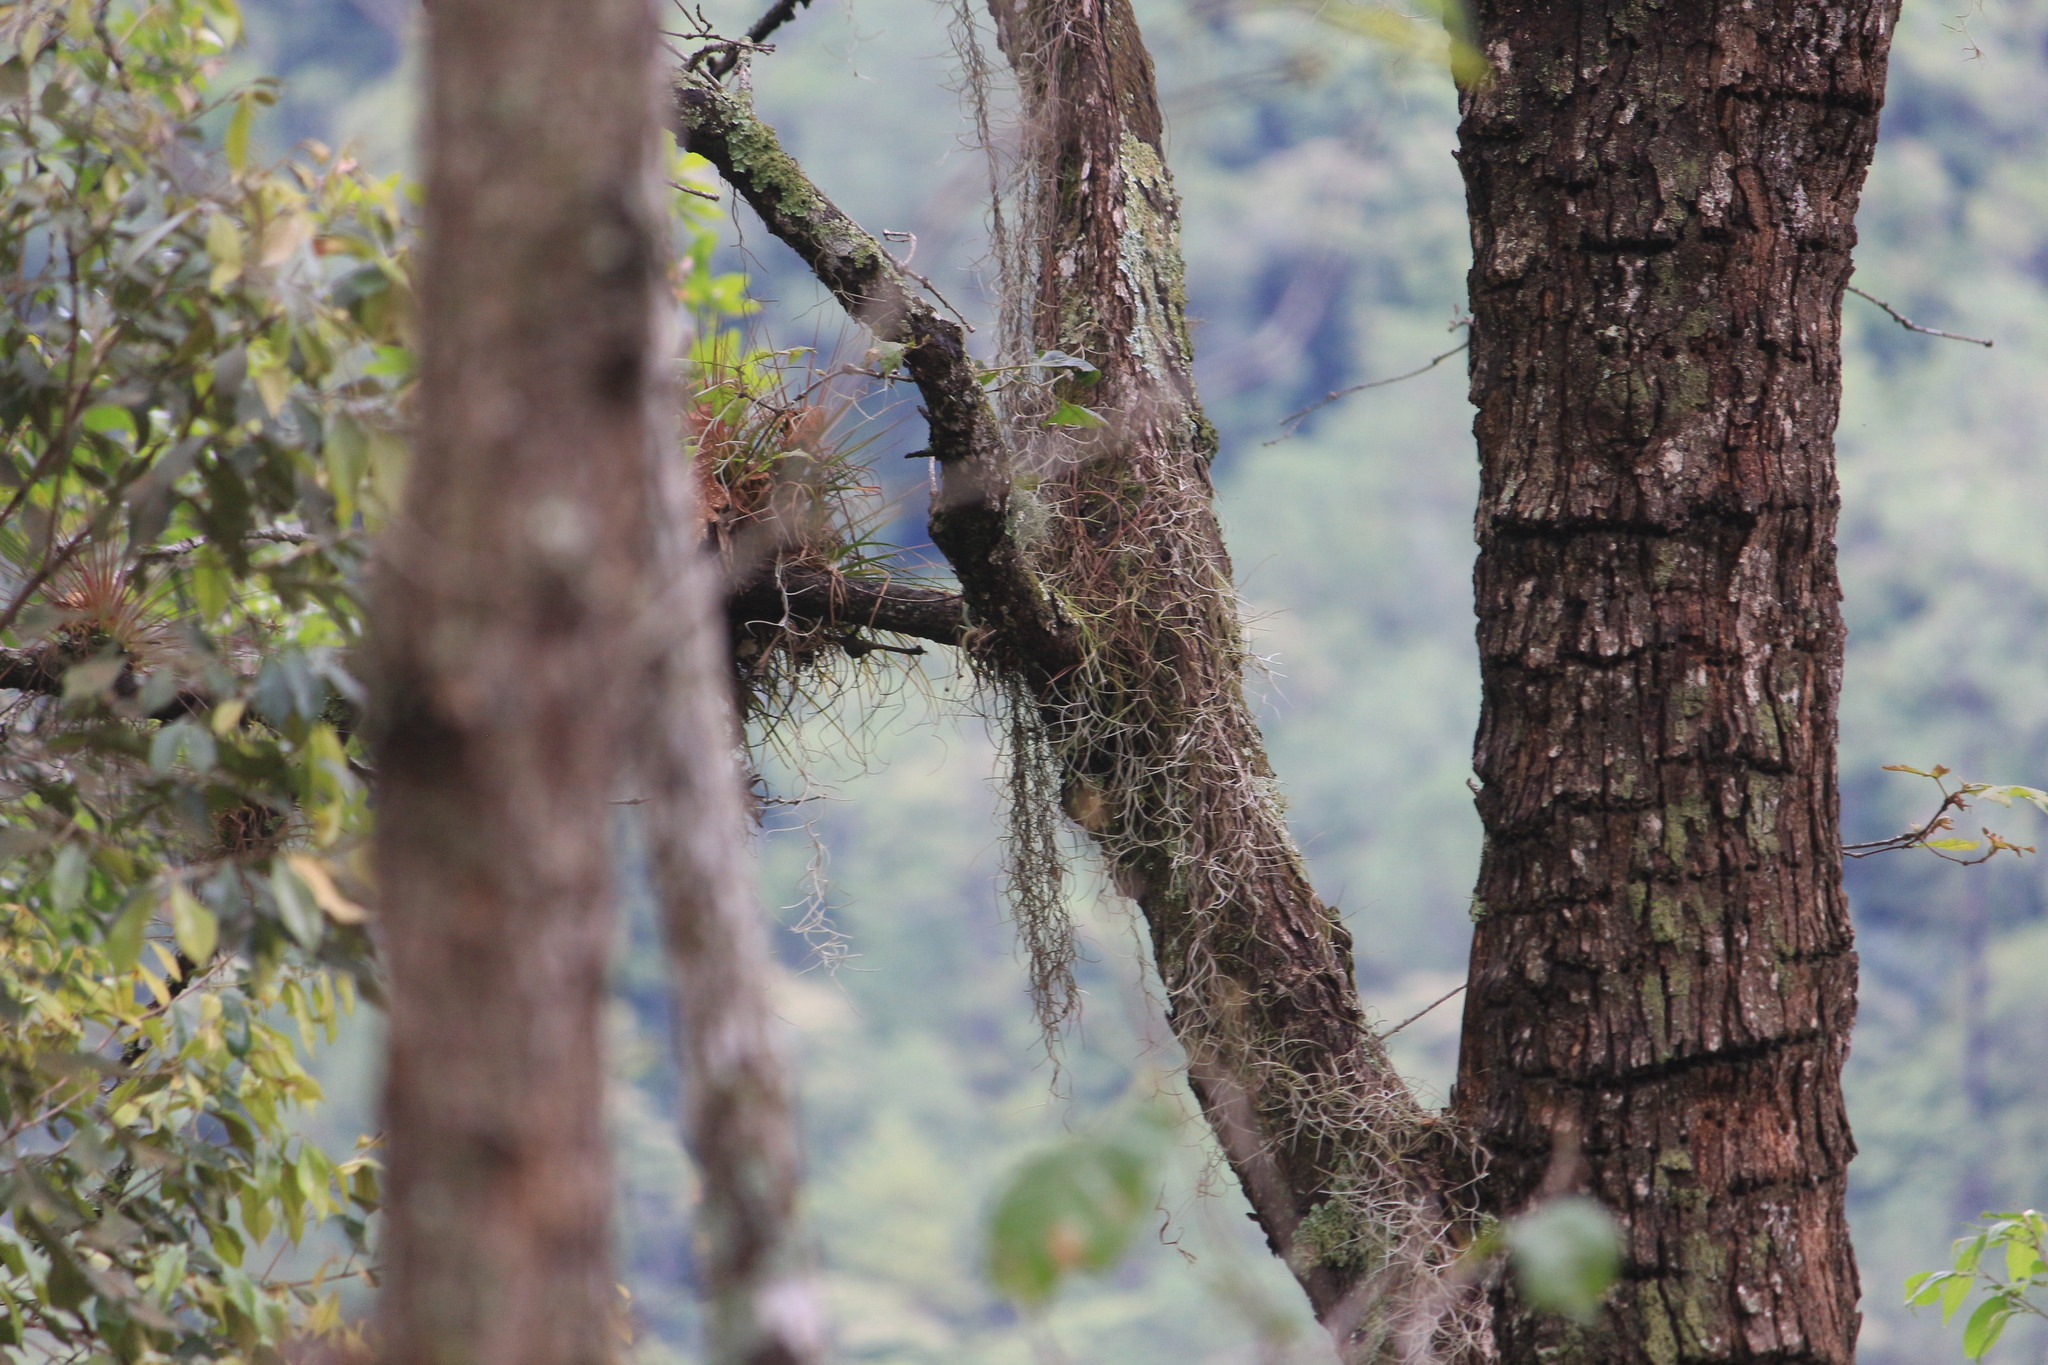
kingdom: Plantae
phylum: Tracheophyta
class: Liliopsida
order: Poales
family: Bromeliaceae
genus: Tillandsia
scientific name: Tillandsia usneoides
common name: Spanish moss
